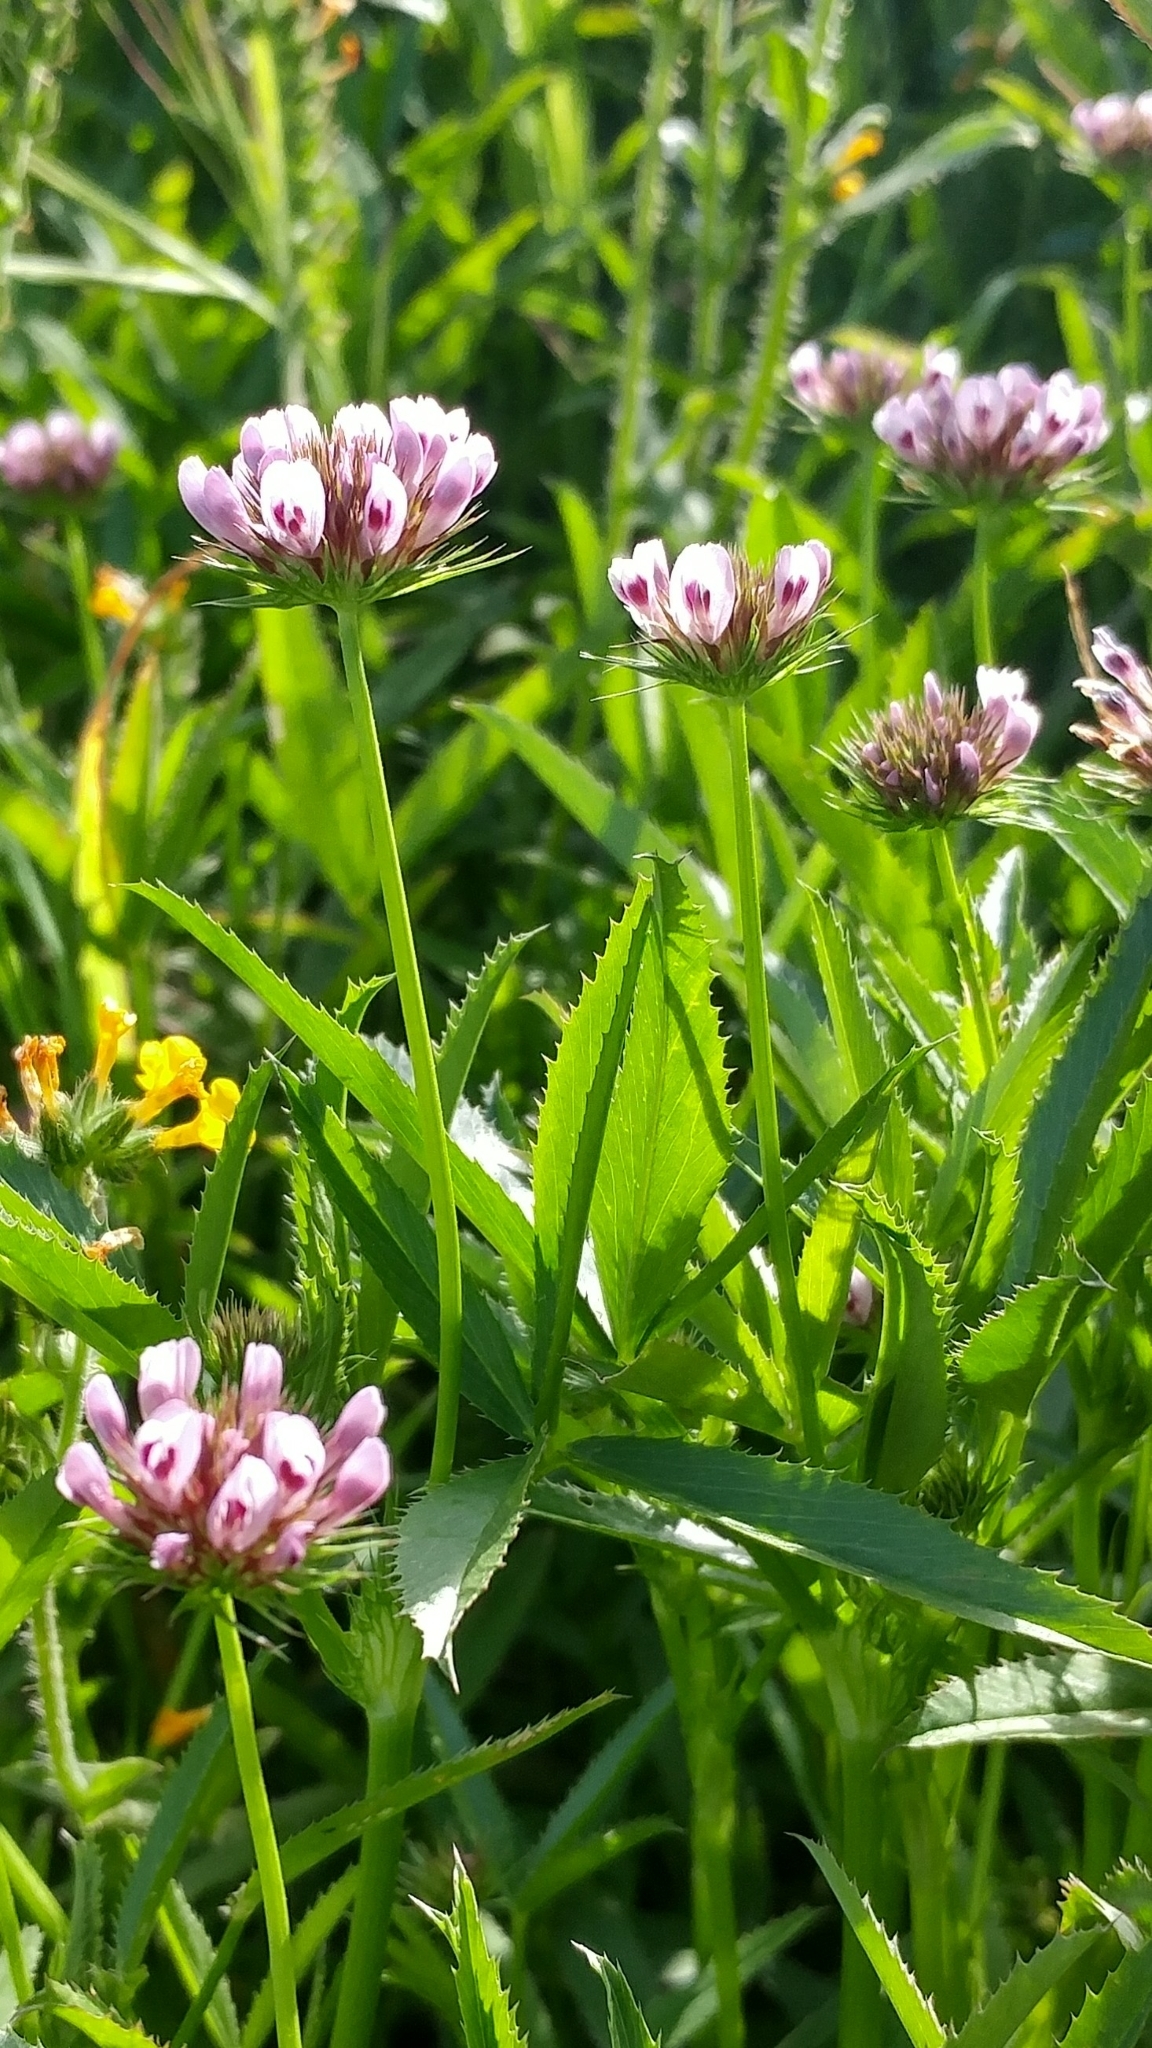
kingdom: Plantae
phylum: Tracheophyta
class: Magnoliopsida
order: Fabales
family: Fabaceae
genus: Trifolium
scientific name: Trifolium willdenovii
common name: Tomcat clover
